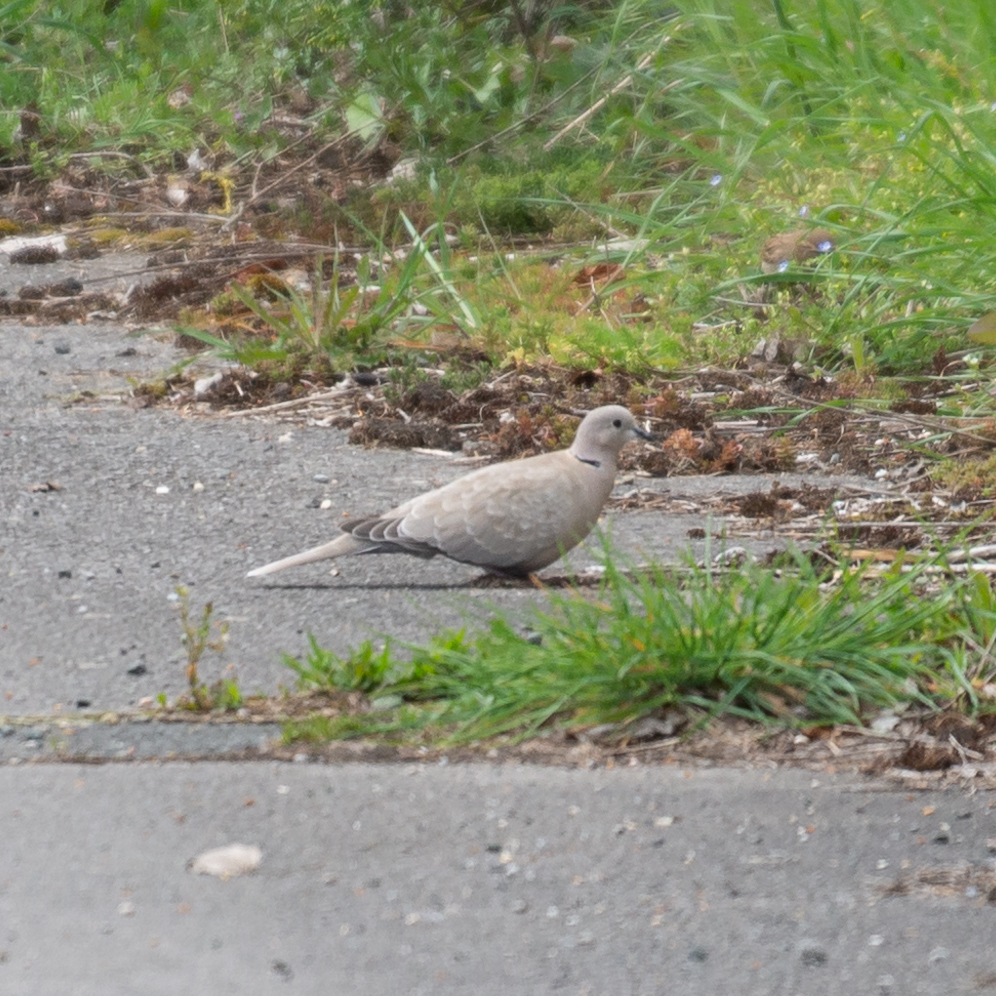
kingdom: Animalia
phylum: Chordata
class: Aves
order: Columbiformes
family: Columbidae
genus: Streptopelia
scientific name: Streptopelia decaocto
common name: Eurasian collared dove
